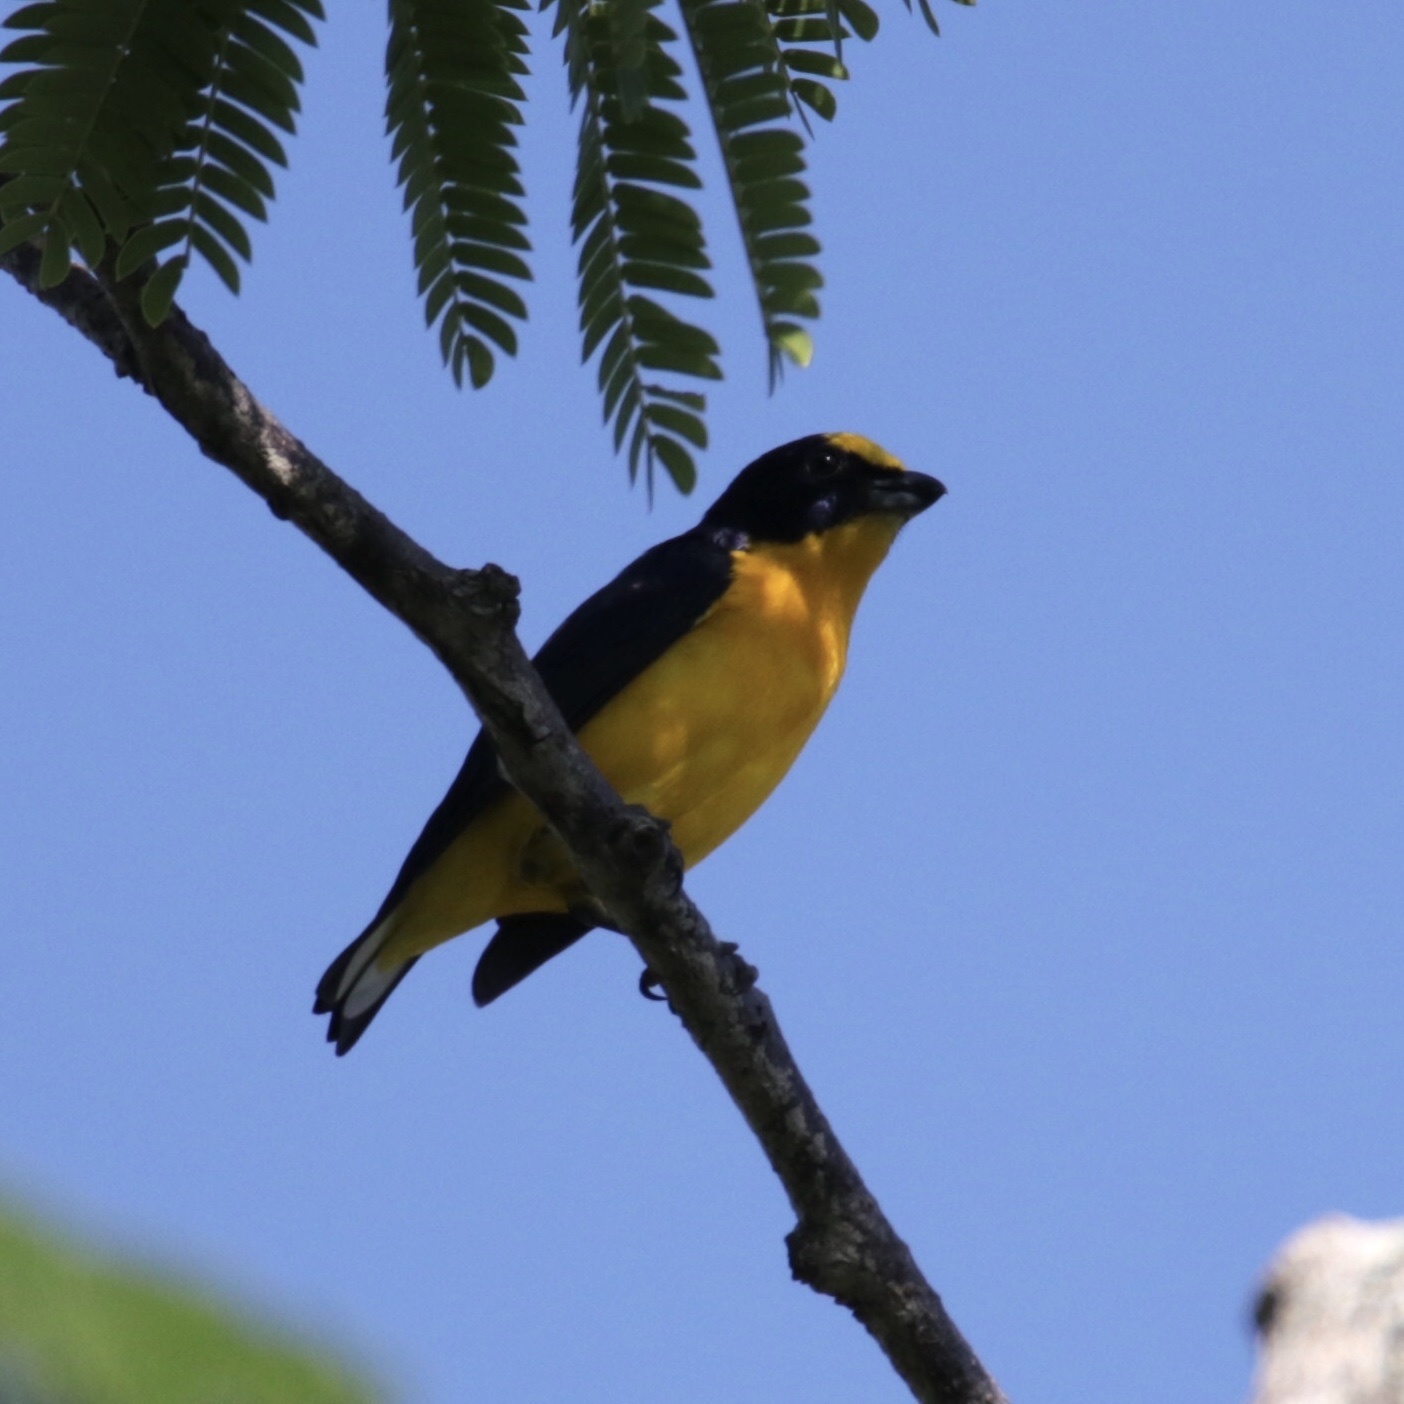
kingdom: Animalia
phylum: Chordata
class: Aves
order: Passeriformes
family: Fringillidae
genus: Euphonia
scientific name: Euphonia laniirostris
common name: Thick-billed euphonia
